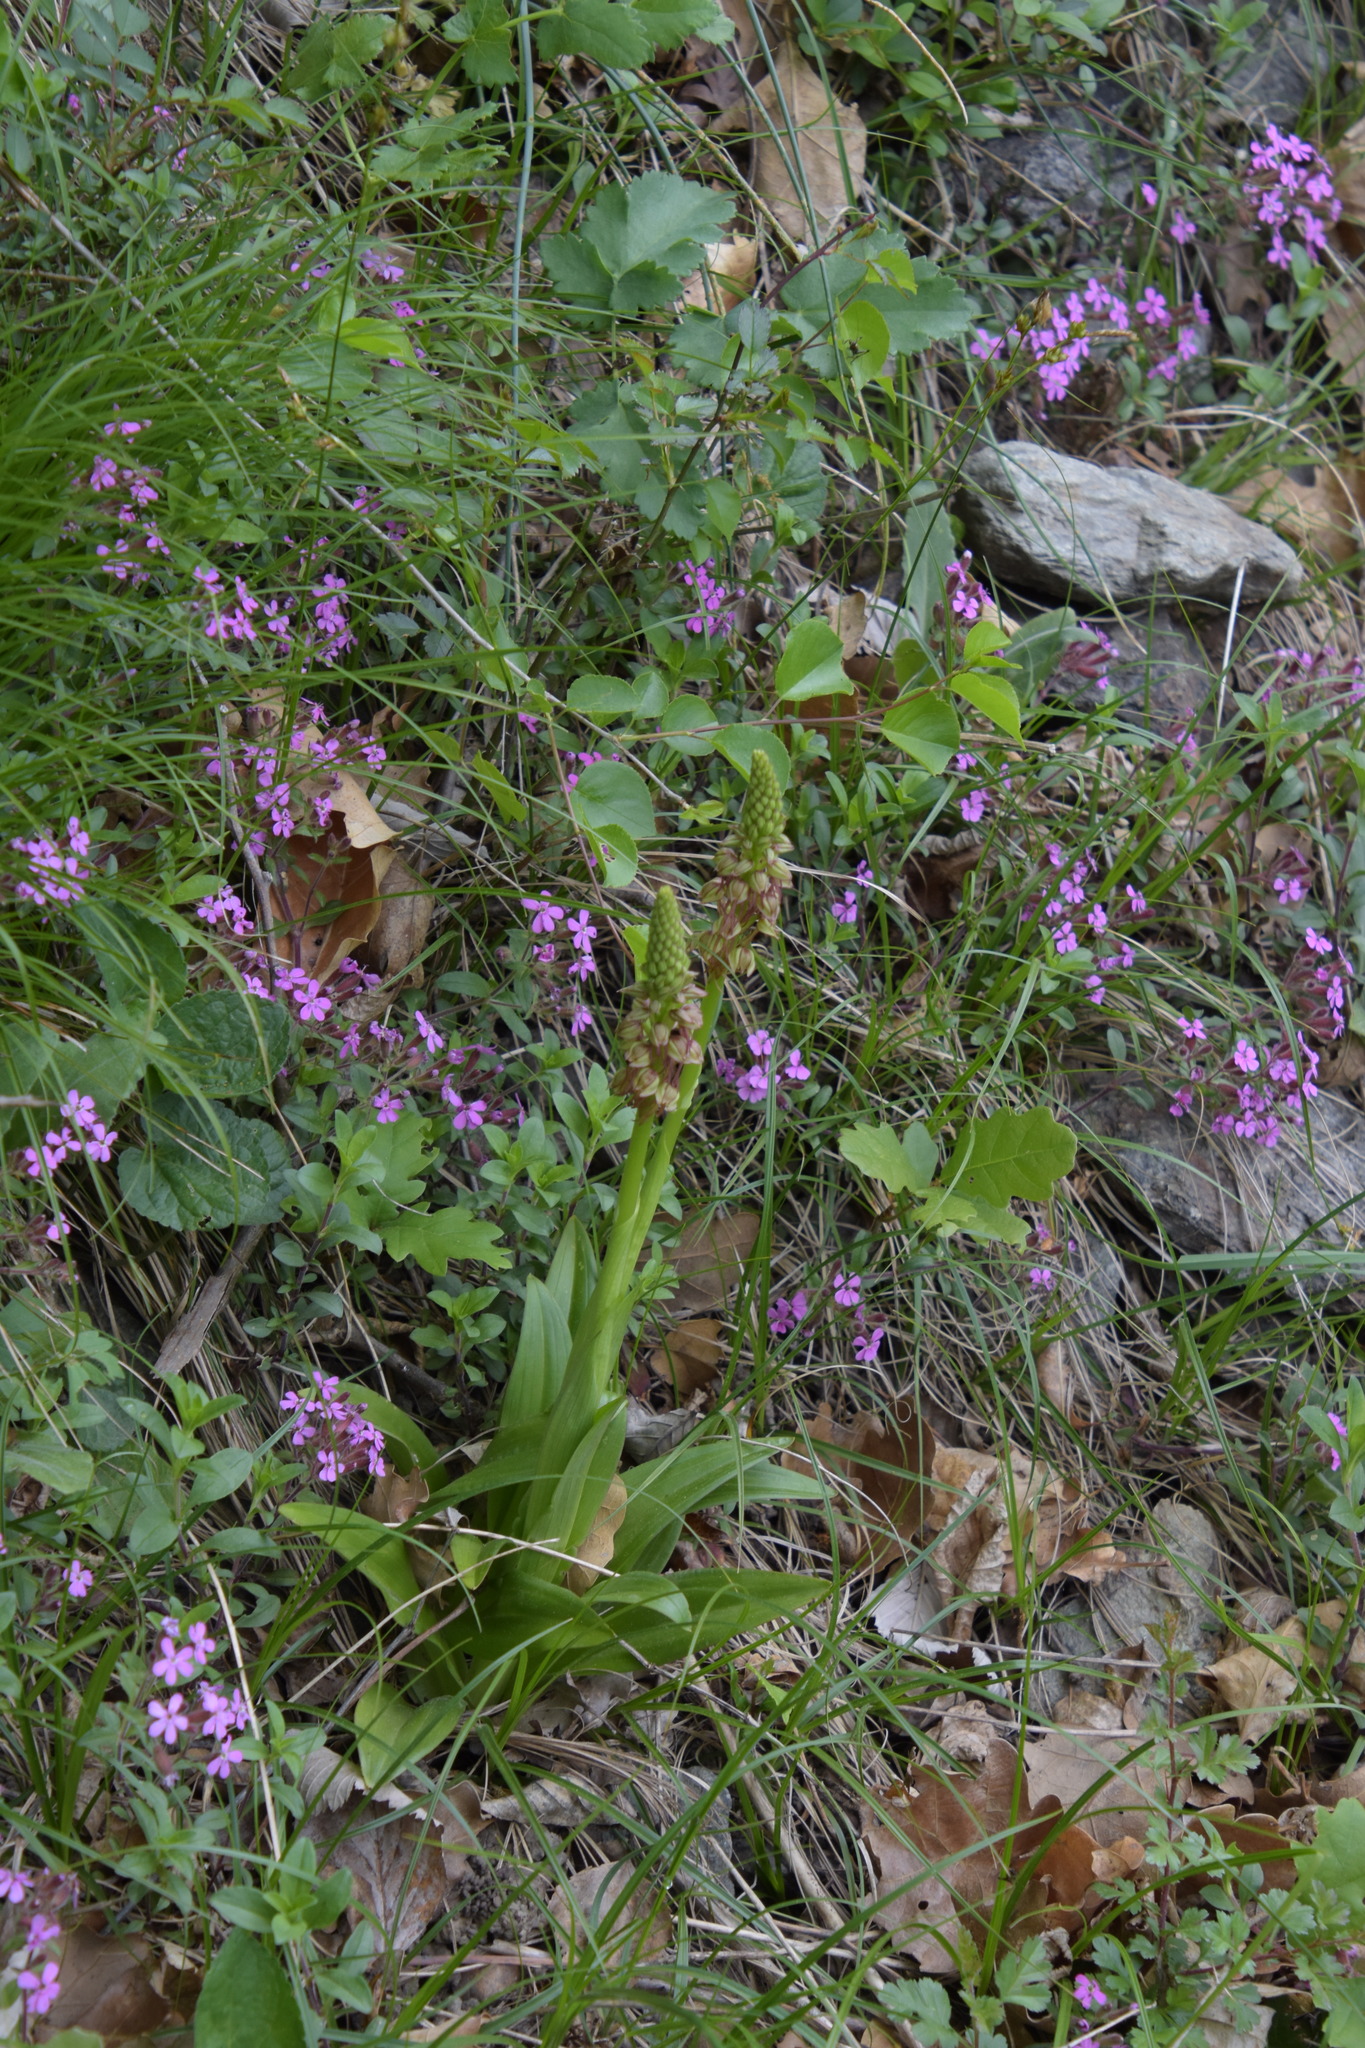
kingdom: Plantae
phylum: Tracheophyta
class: Liliopsida
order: Asparagales
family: Orchidaceae
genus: Orchis
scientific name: Orchis anthropophora
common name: Man orchid
